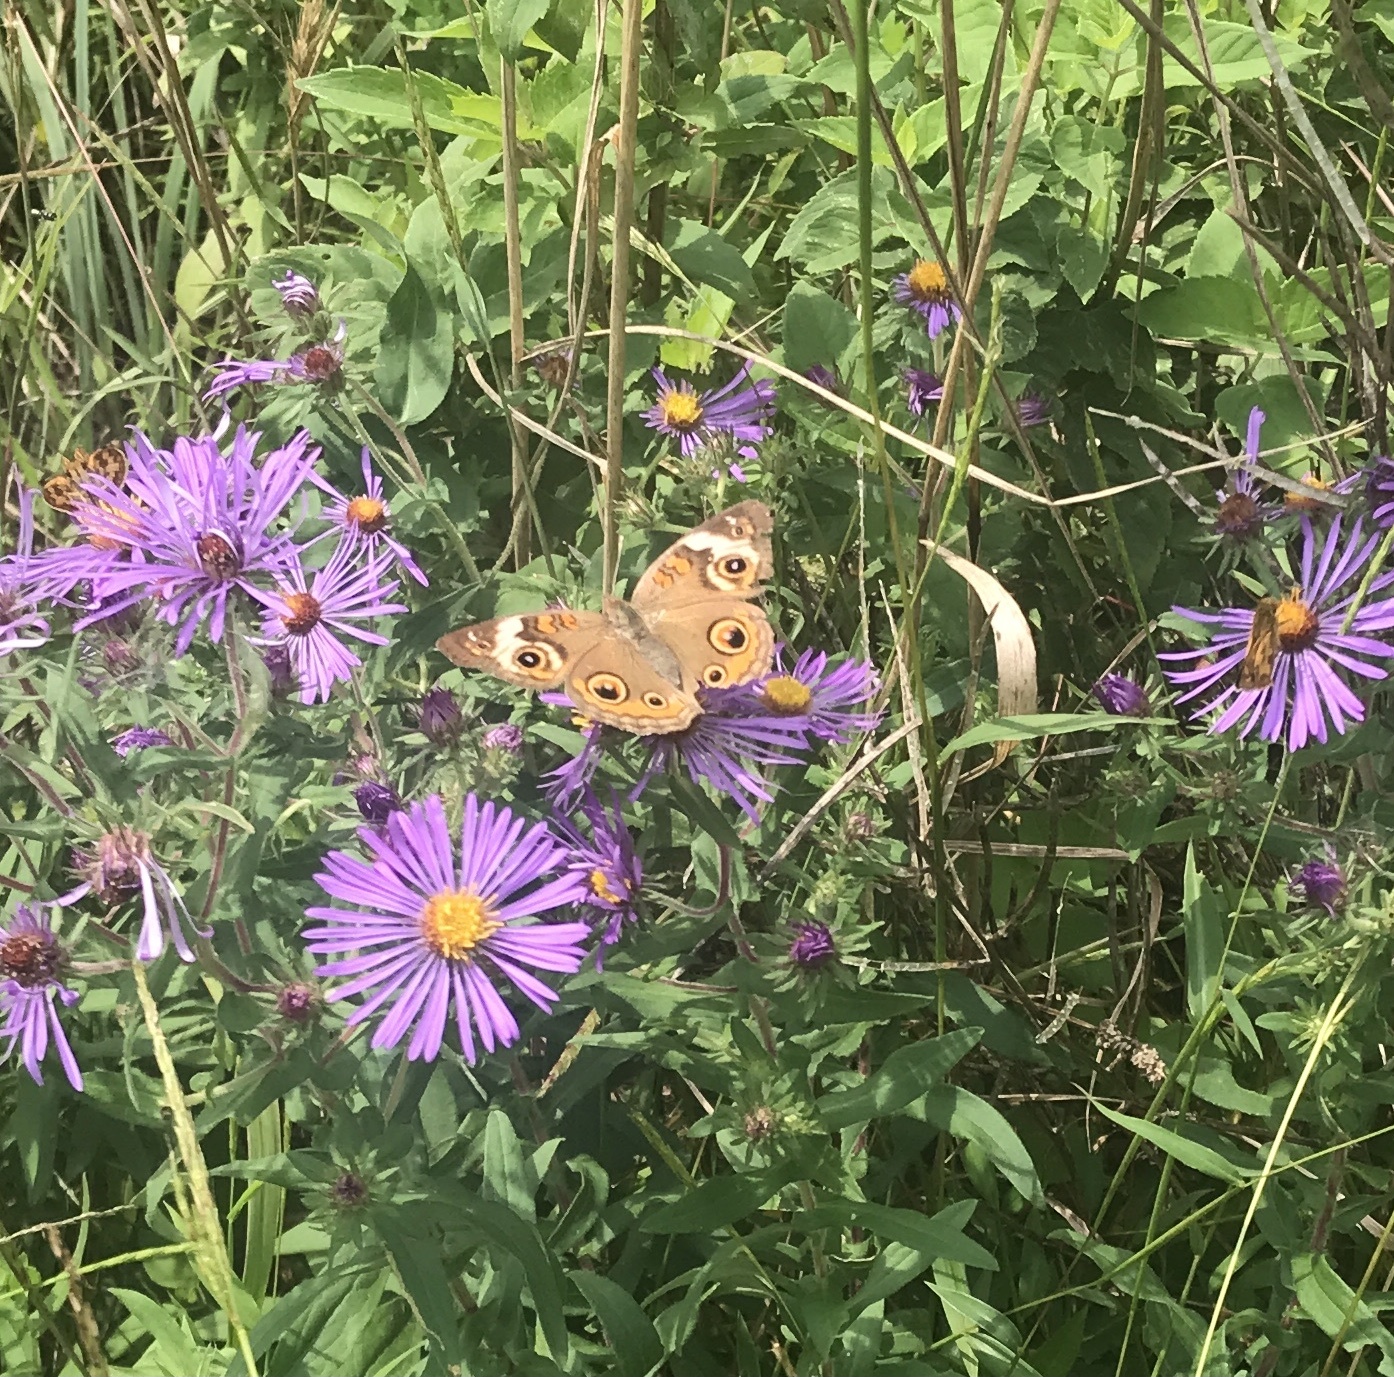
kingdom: Animalia
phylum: Arthropoda
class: Insecta
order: Lepidoptera
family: Nymphalidae
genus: Junonia
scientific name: Junonia coenia
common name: Common buckeye
